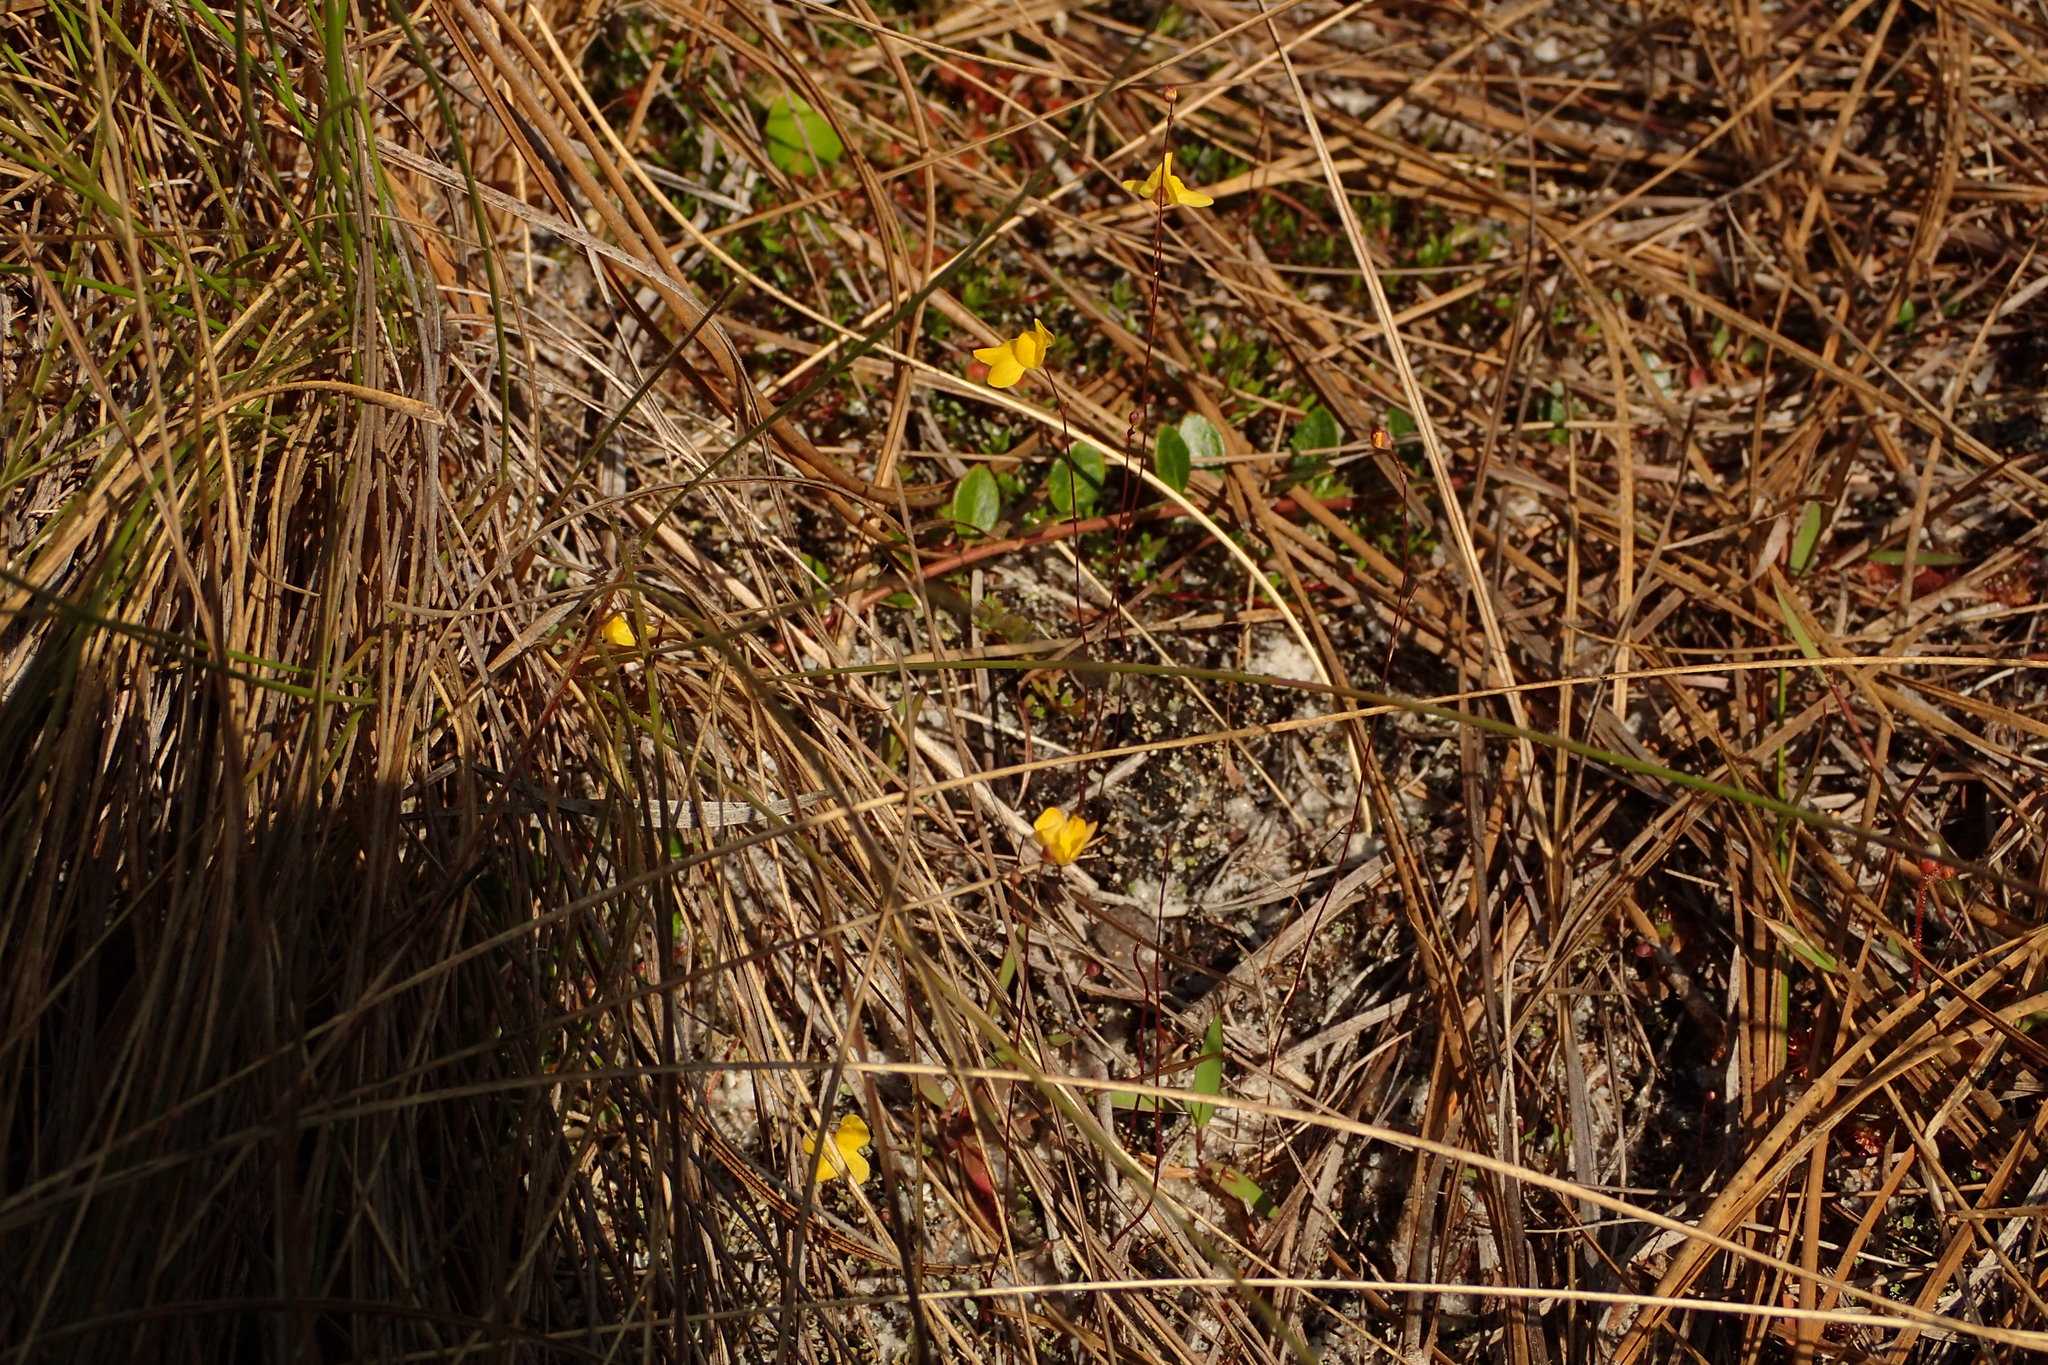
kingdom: Plantae
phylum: Tracheophyta
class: Magnoliopsida
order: Lamiales
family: Lentibulariaceae
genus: Utricularia
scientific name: Utricularia subulata
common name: Tiny bladderwort
